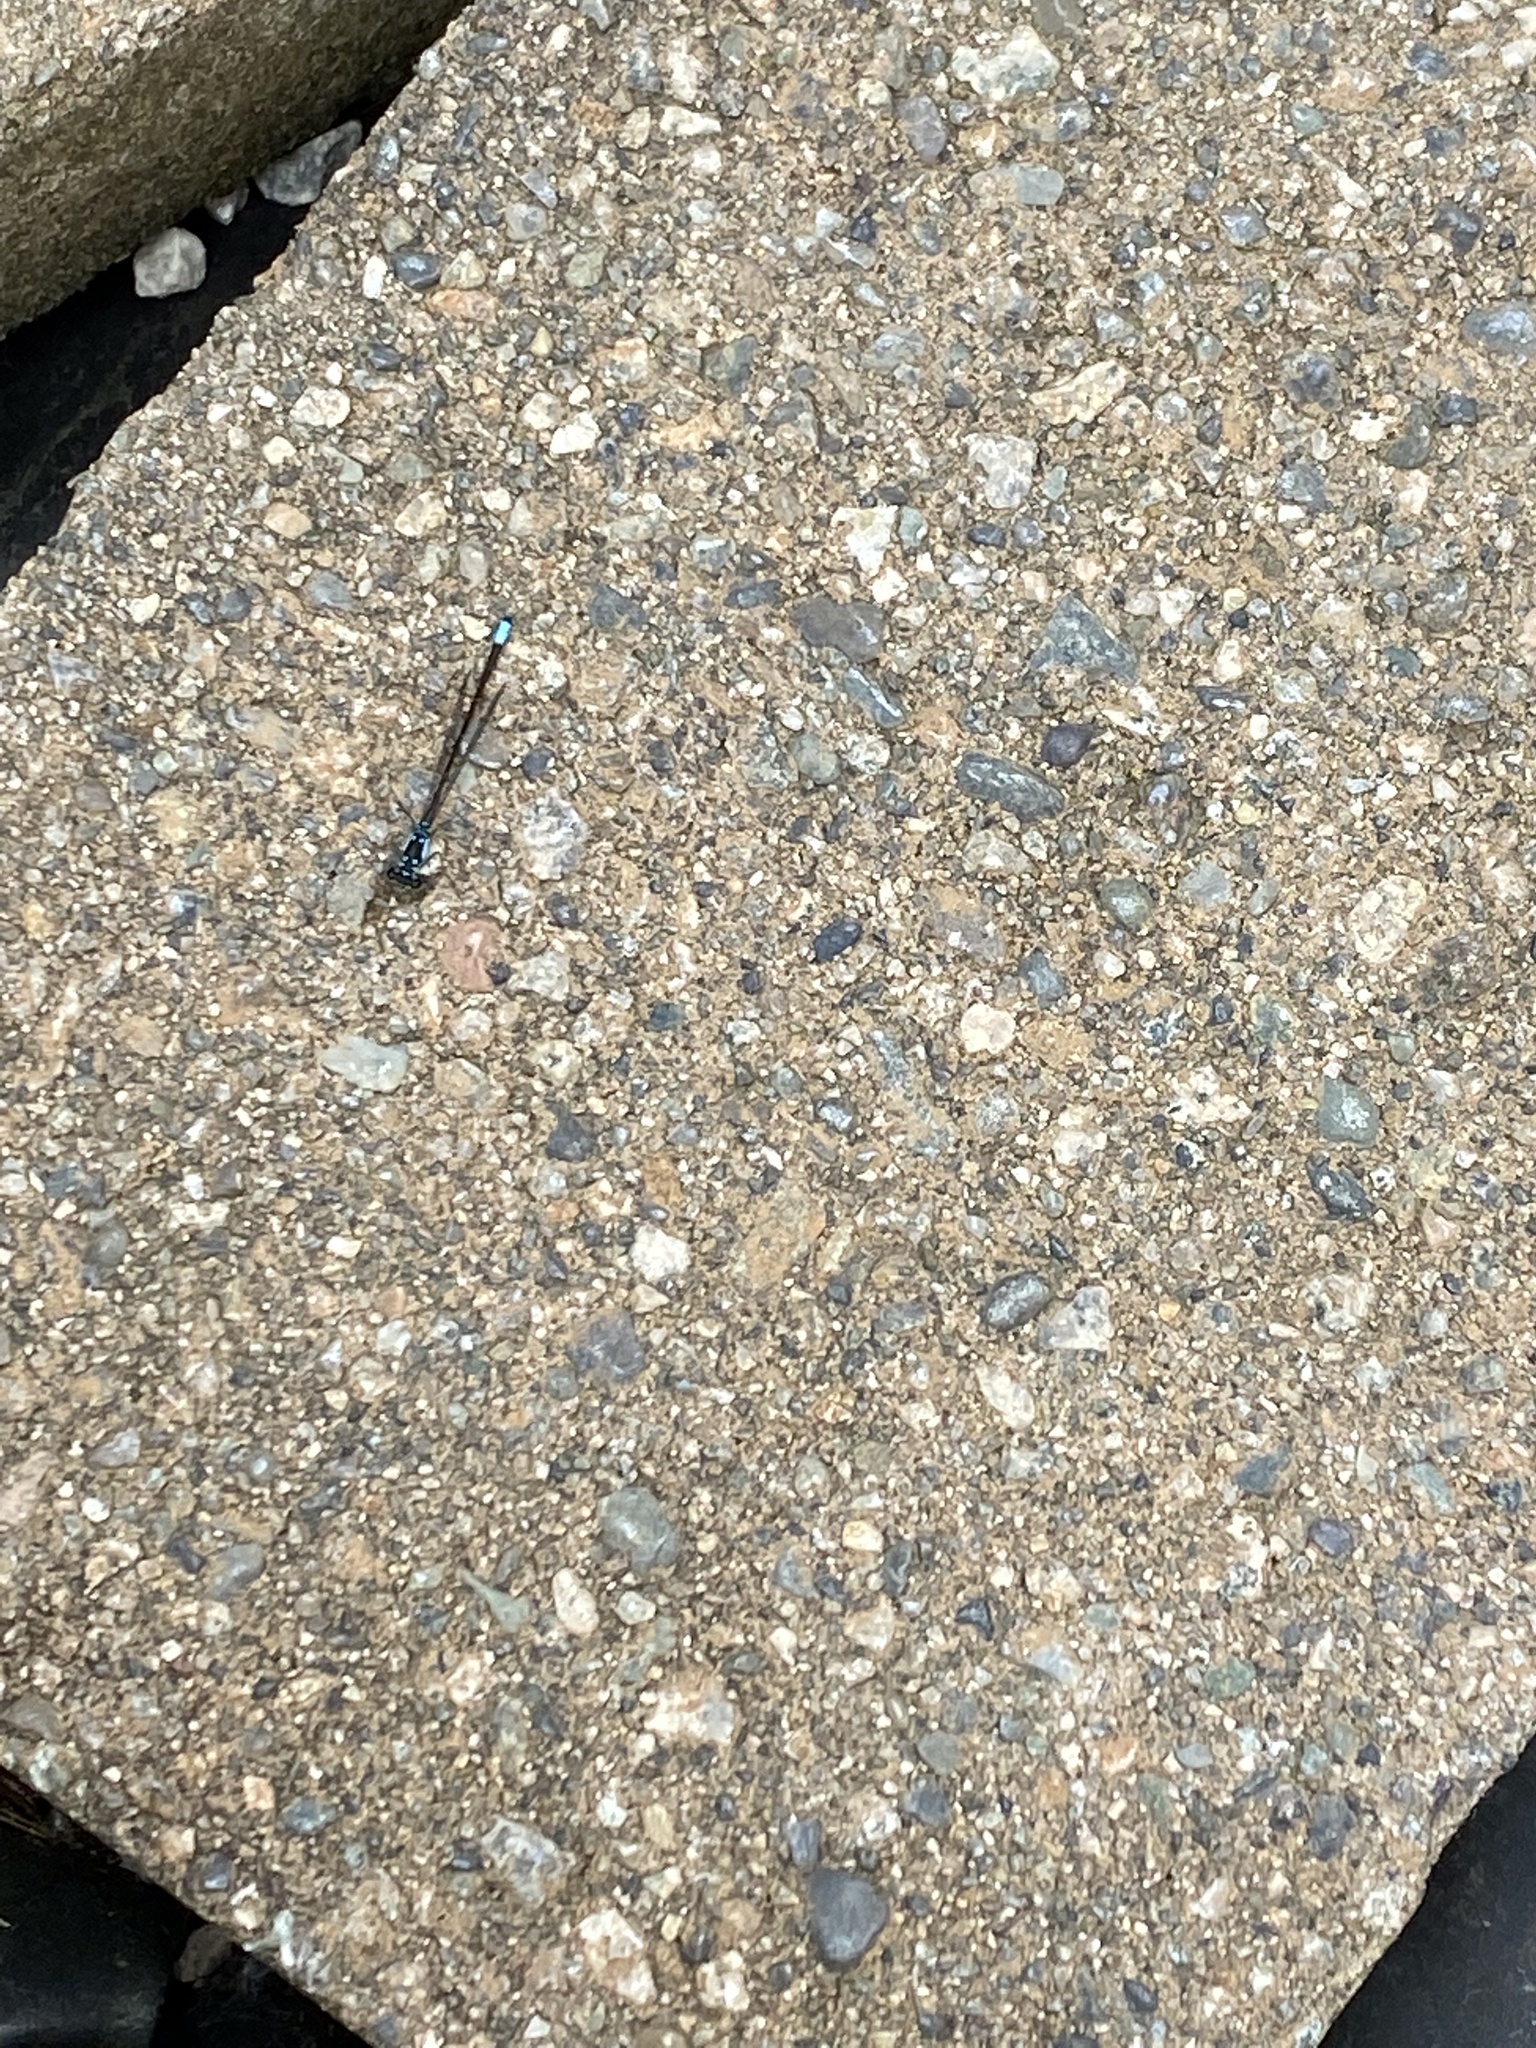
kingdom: Animalia
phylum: Arthropoda
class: Insecta
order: Odonata
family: Coenagrionidae
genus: Ischnura
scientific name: Ischnura cervula
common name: Pacific forktail
